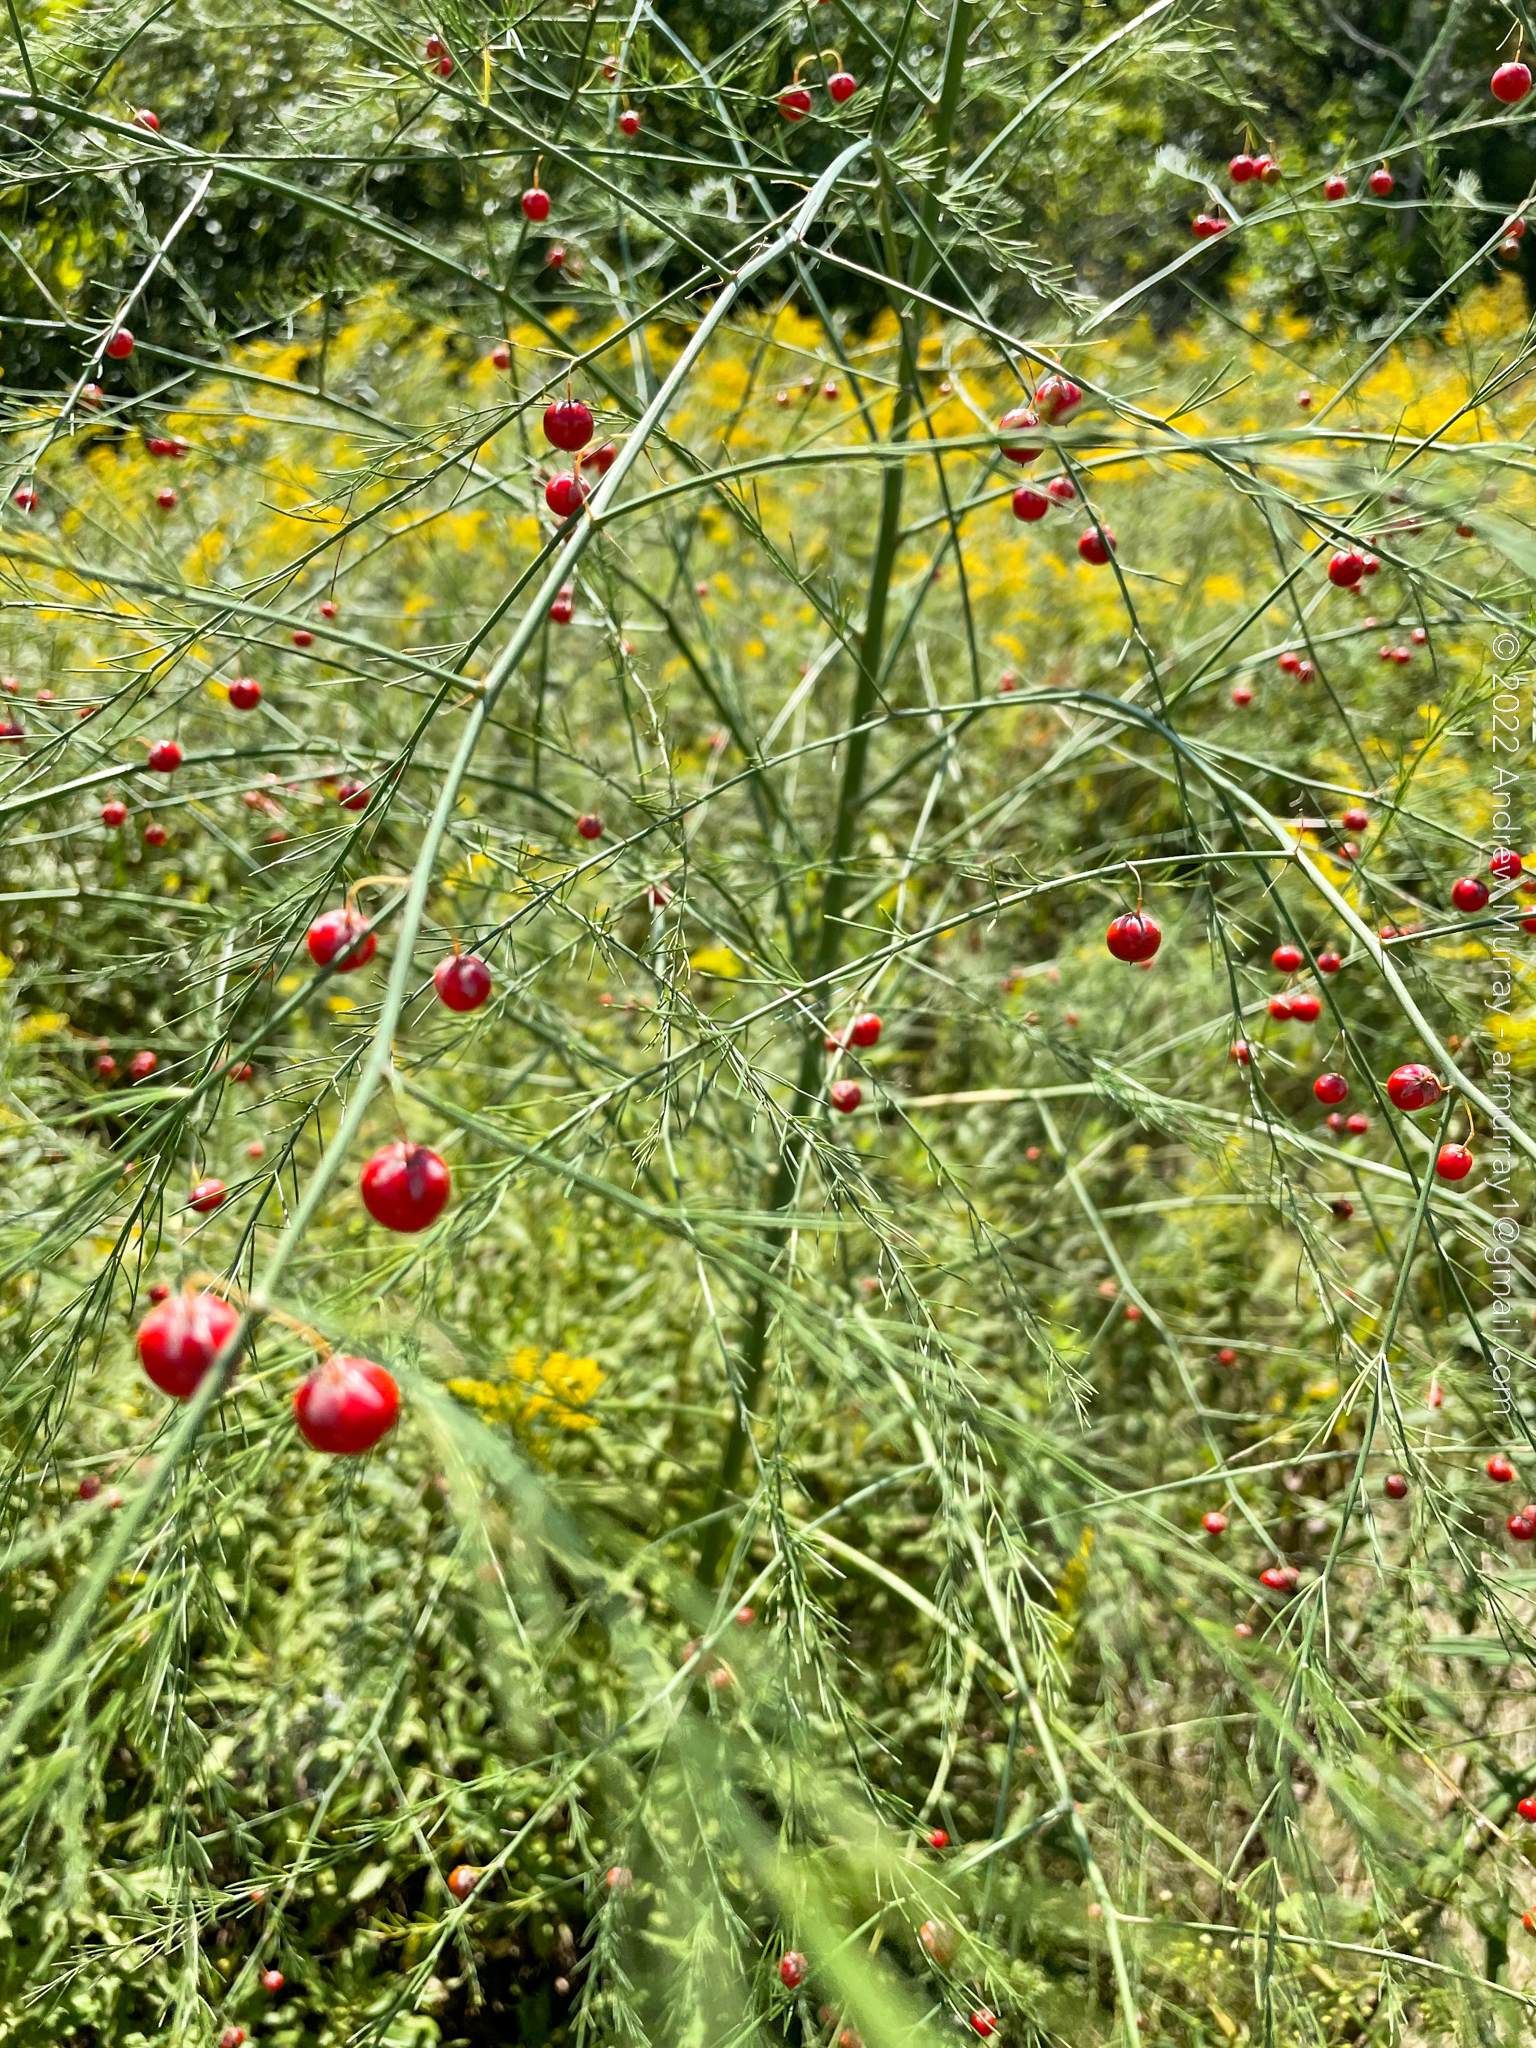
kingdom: Plantae
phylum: Tracheophyta
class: Liliopsida
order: Asparagales
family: Asparagaceae
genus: Asparagus
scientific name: Asparagus officinalis
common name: Garden asparagus
